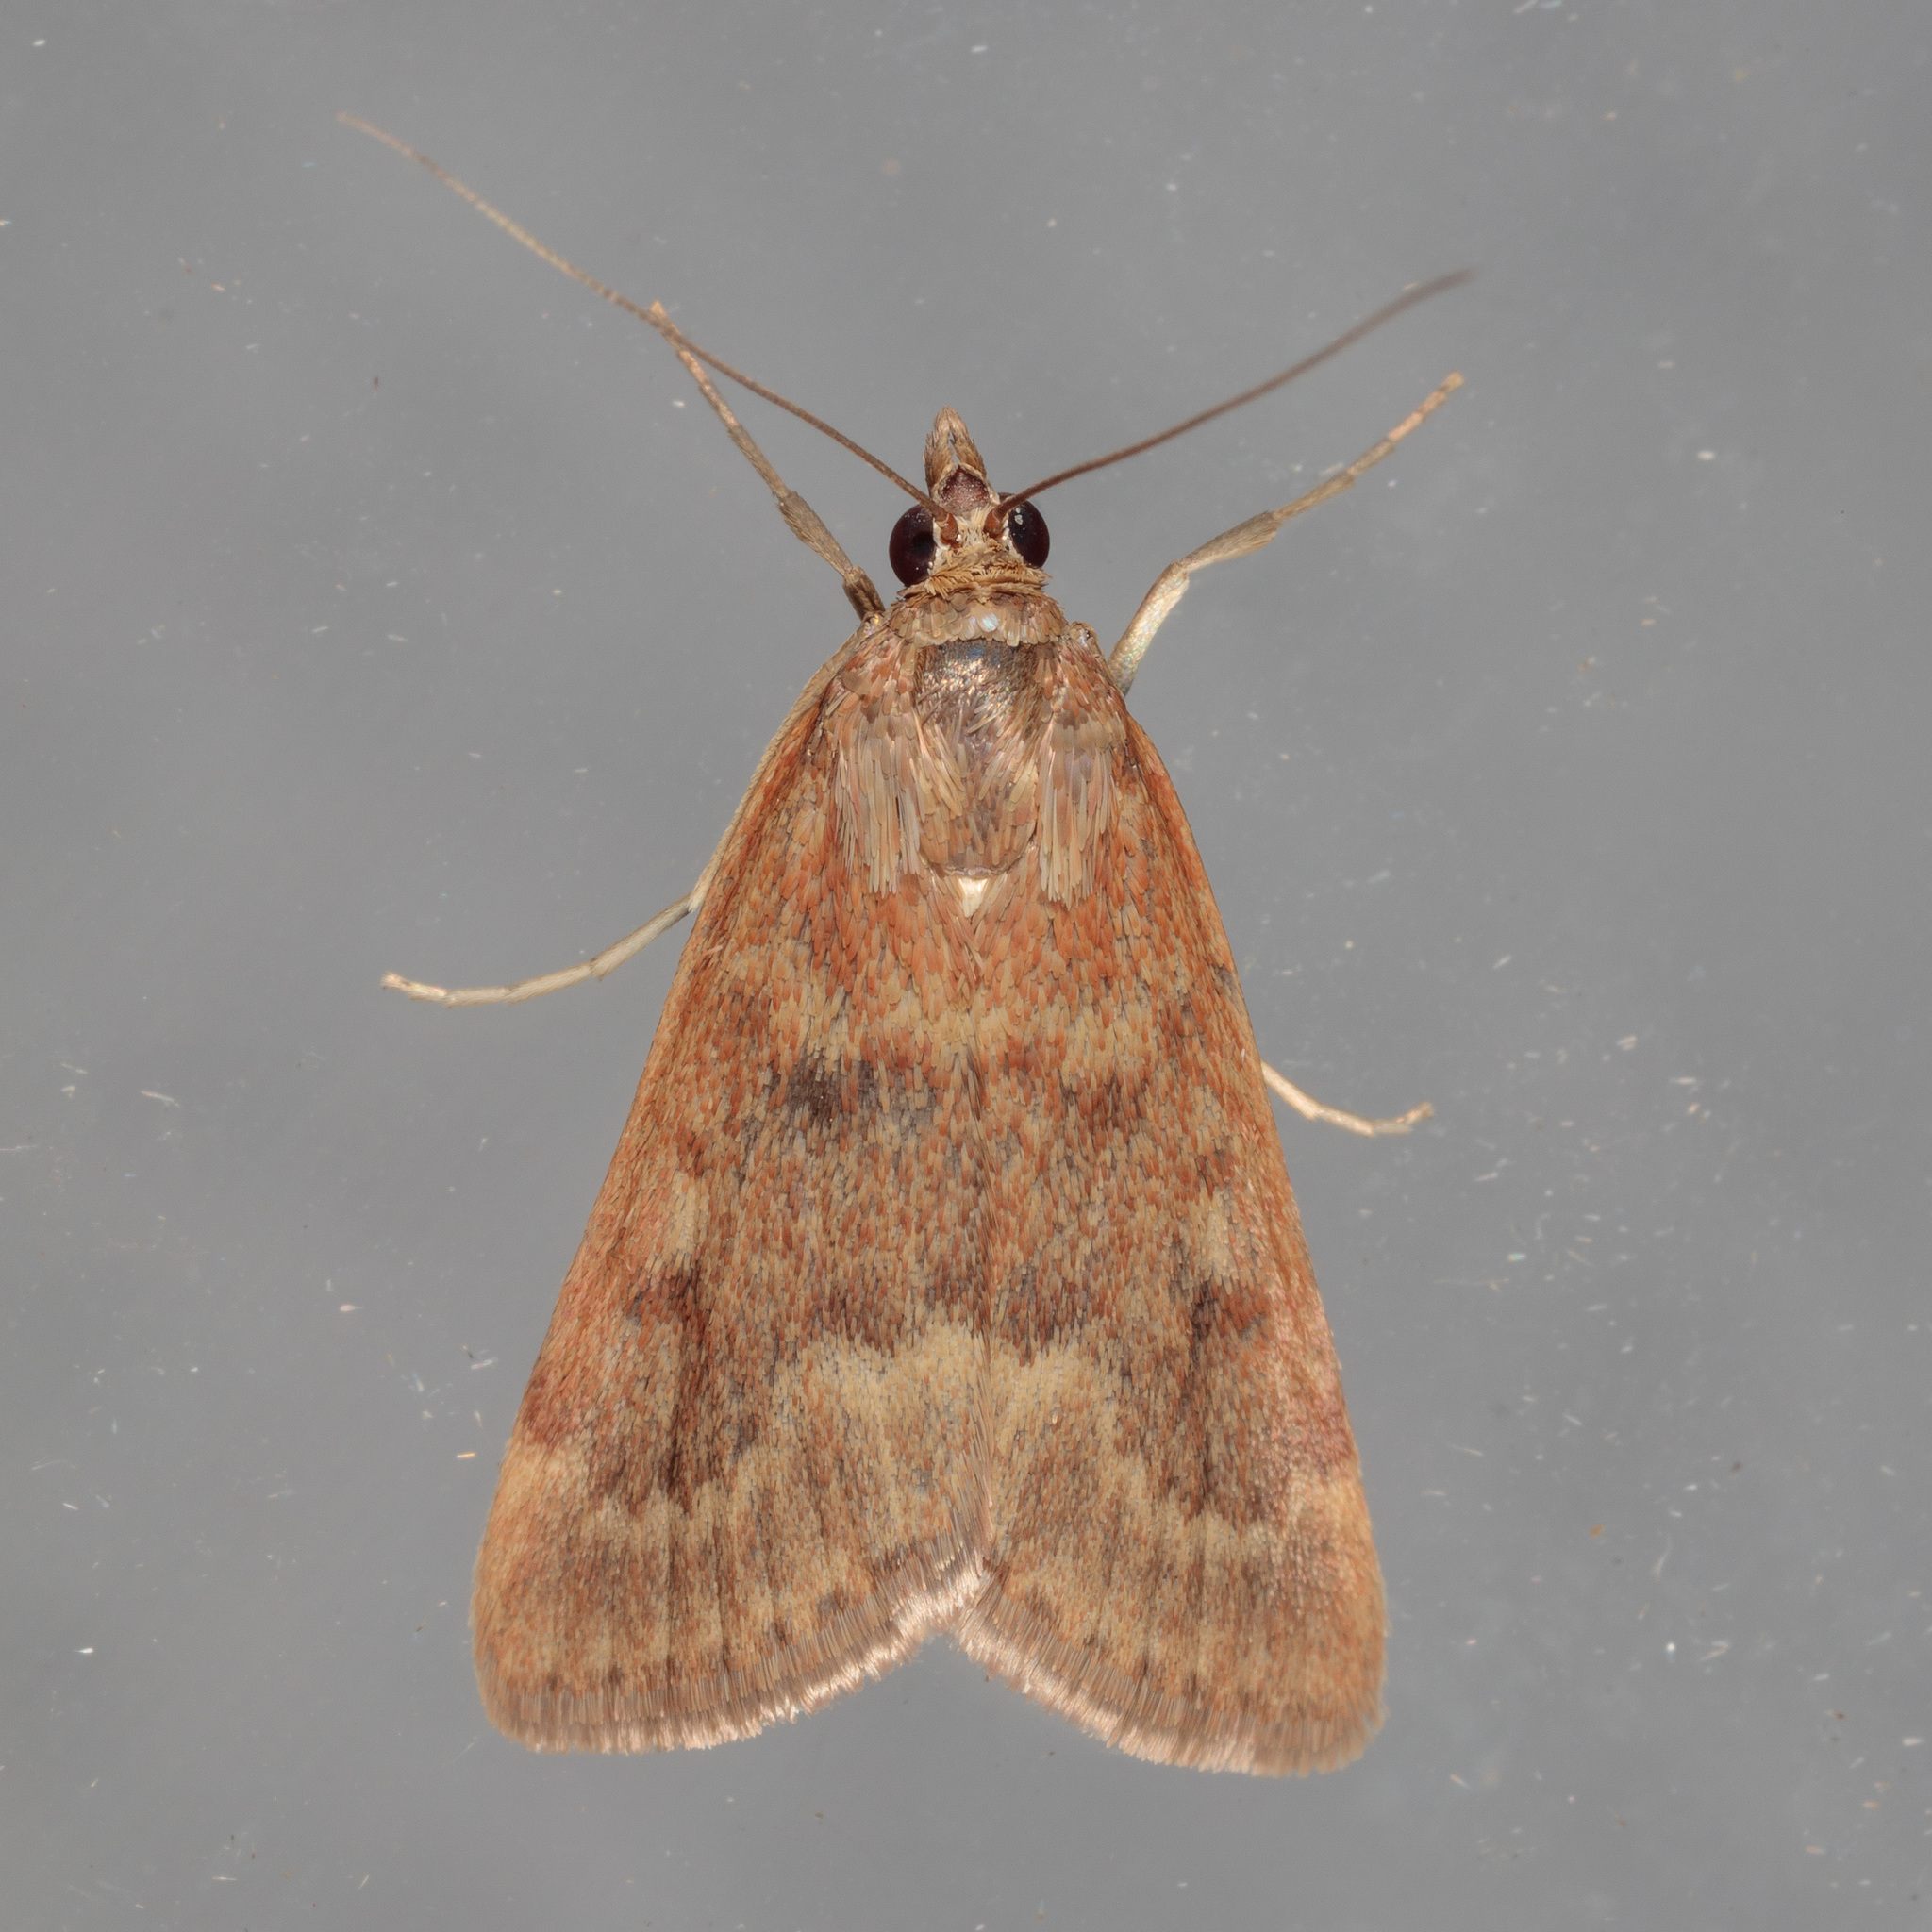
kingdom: Animalia
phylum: Arthropoda
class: Insecta
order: Lepidoptera
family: Crambidae
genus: Achyra
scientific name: Achyra rantalis
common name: Garden webworm
